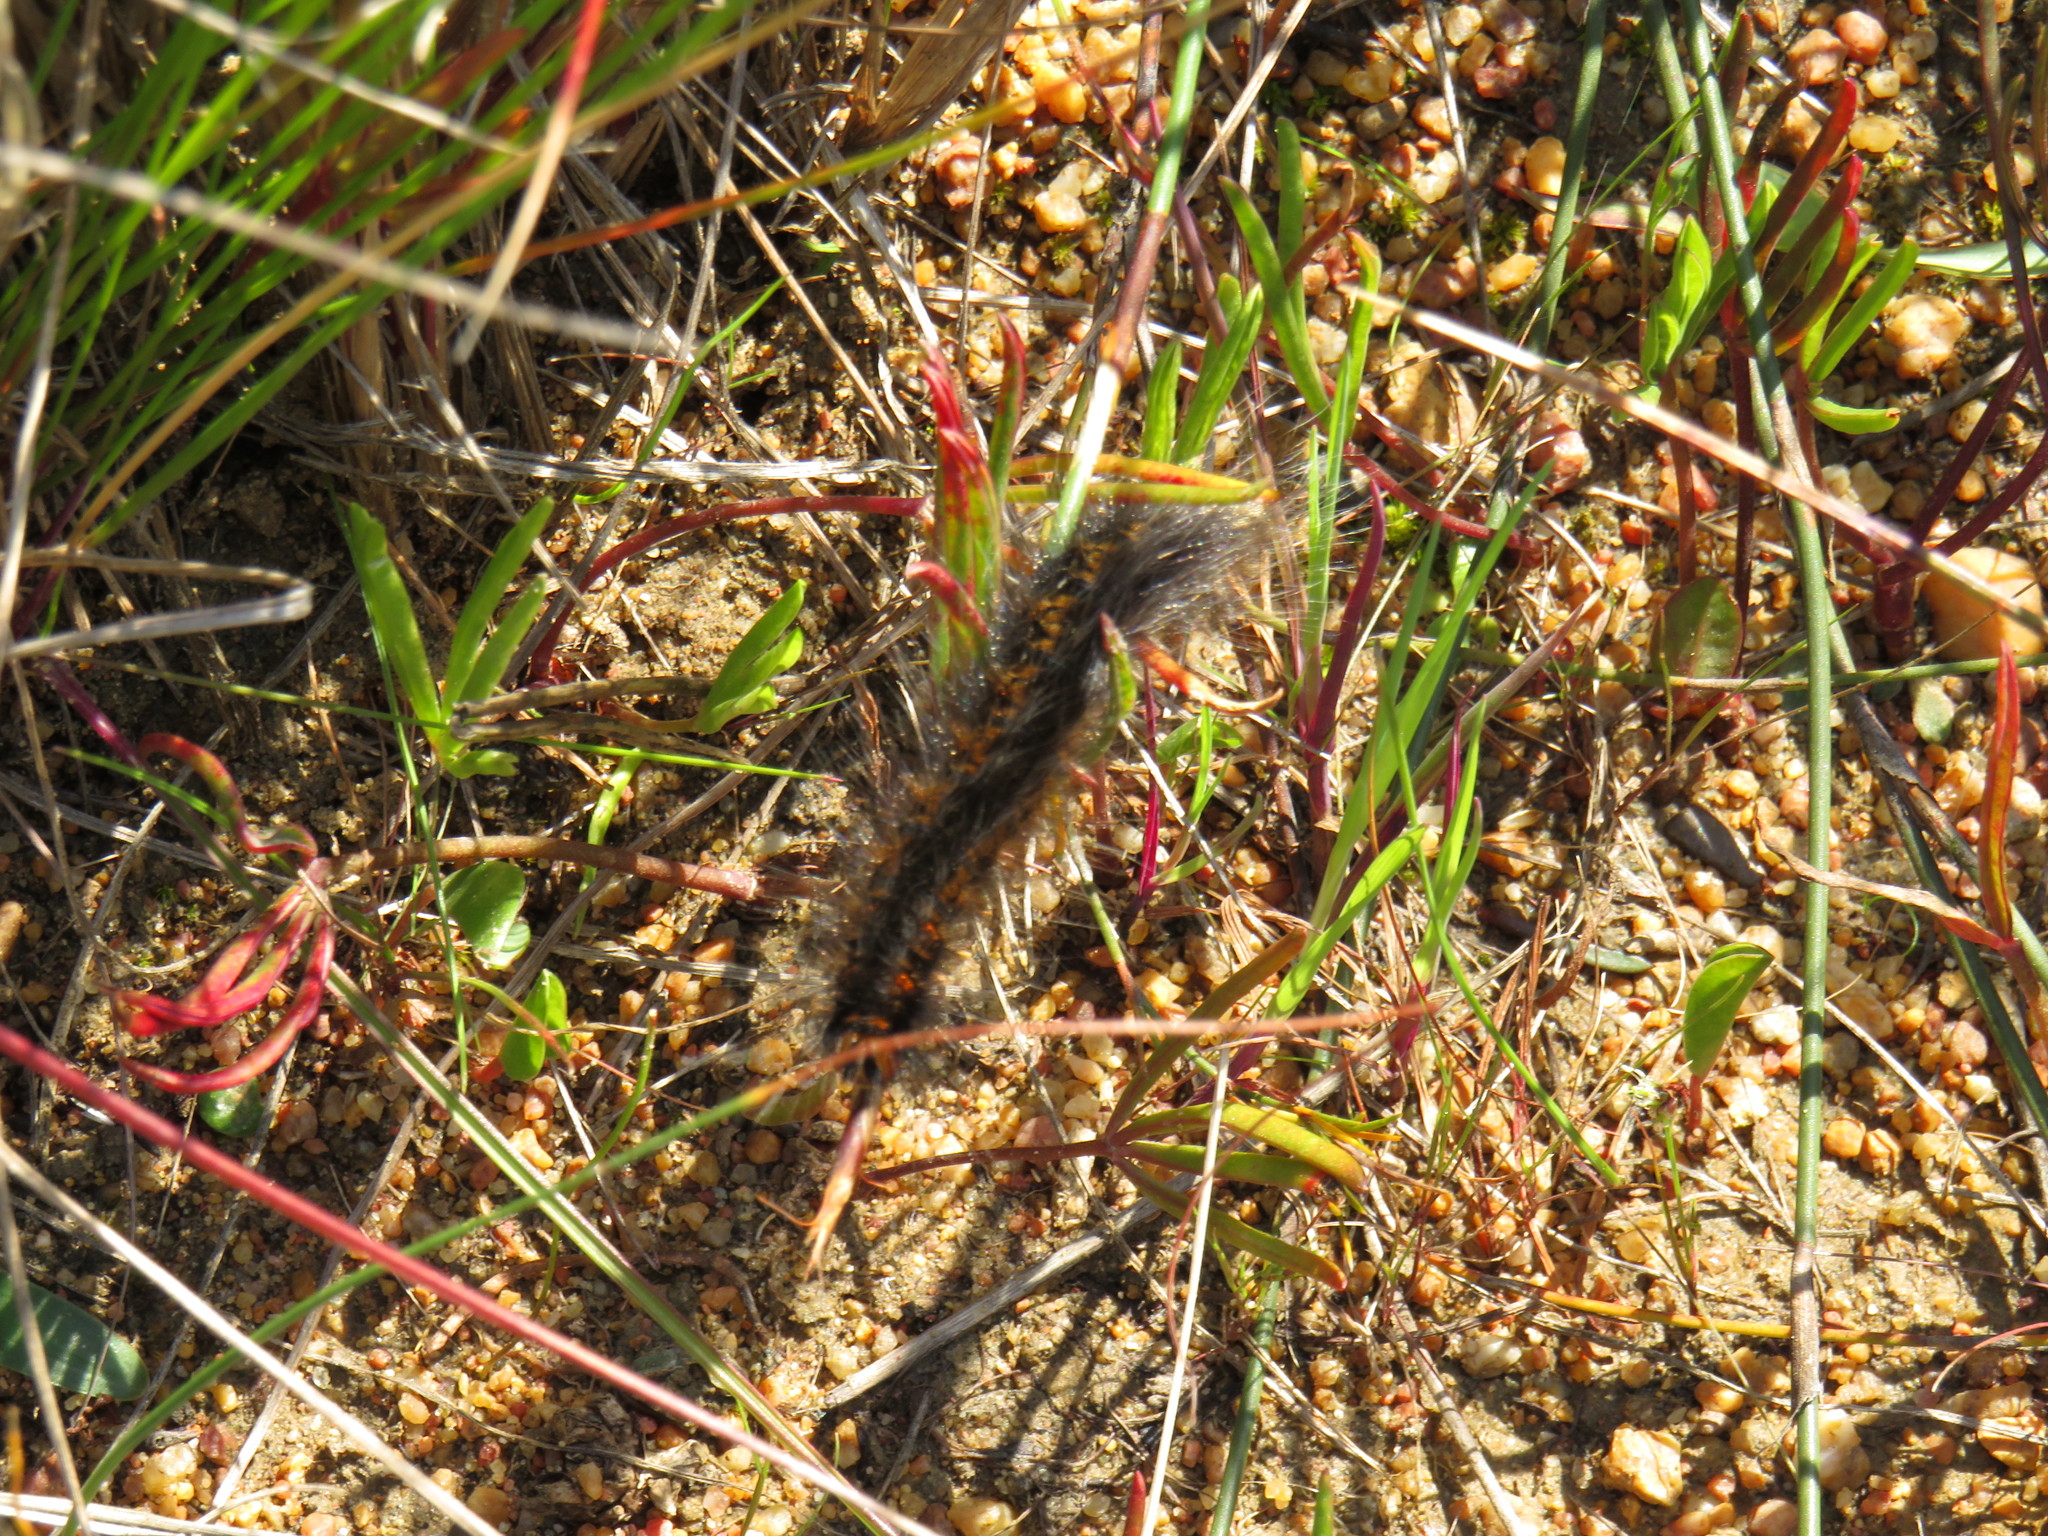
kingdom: Animalia
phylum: Arthropoda
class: Insecta
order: Lepidoptera
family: Lasiocampidae
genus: Mesocelis
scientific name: Mesocelis monticola
